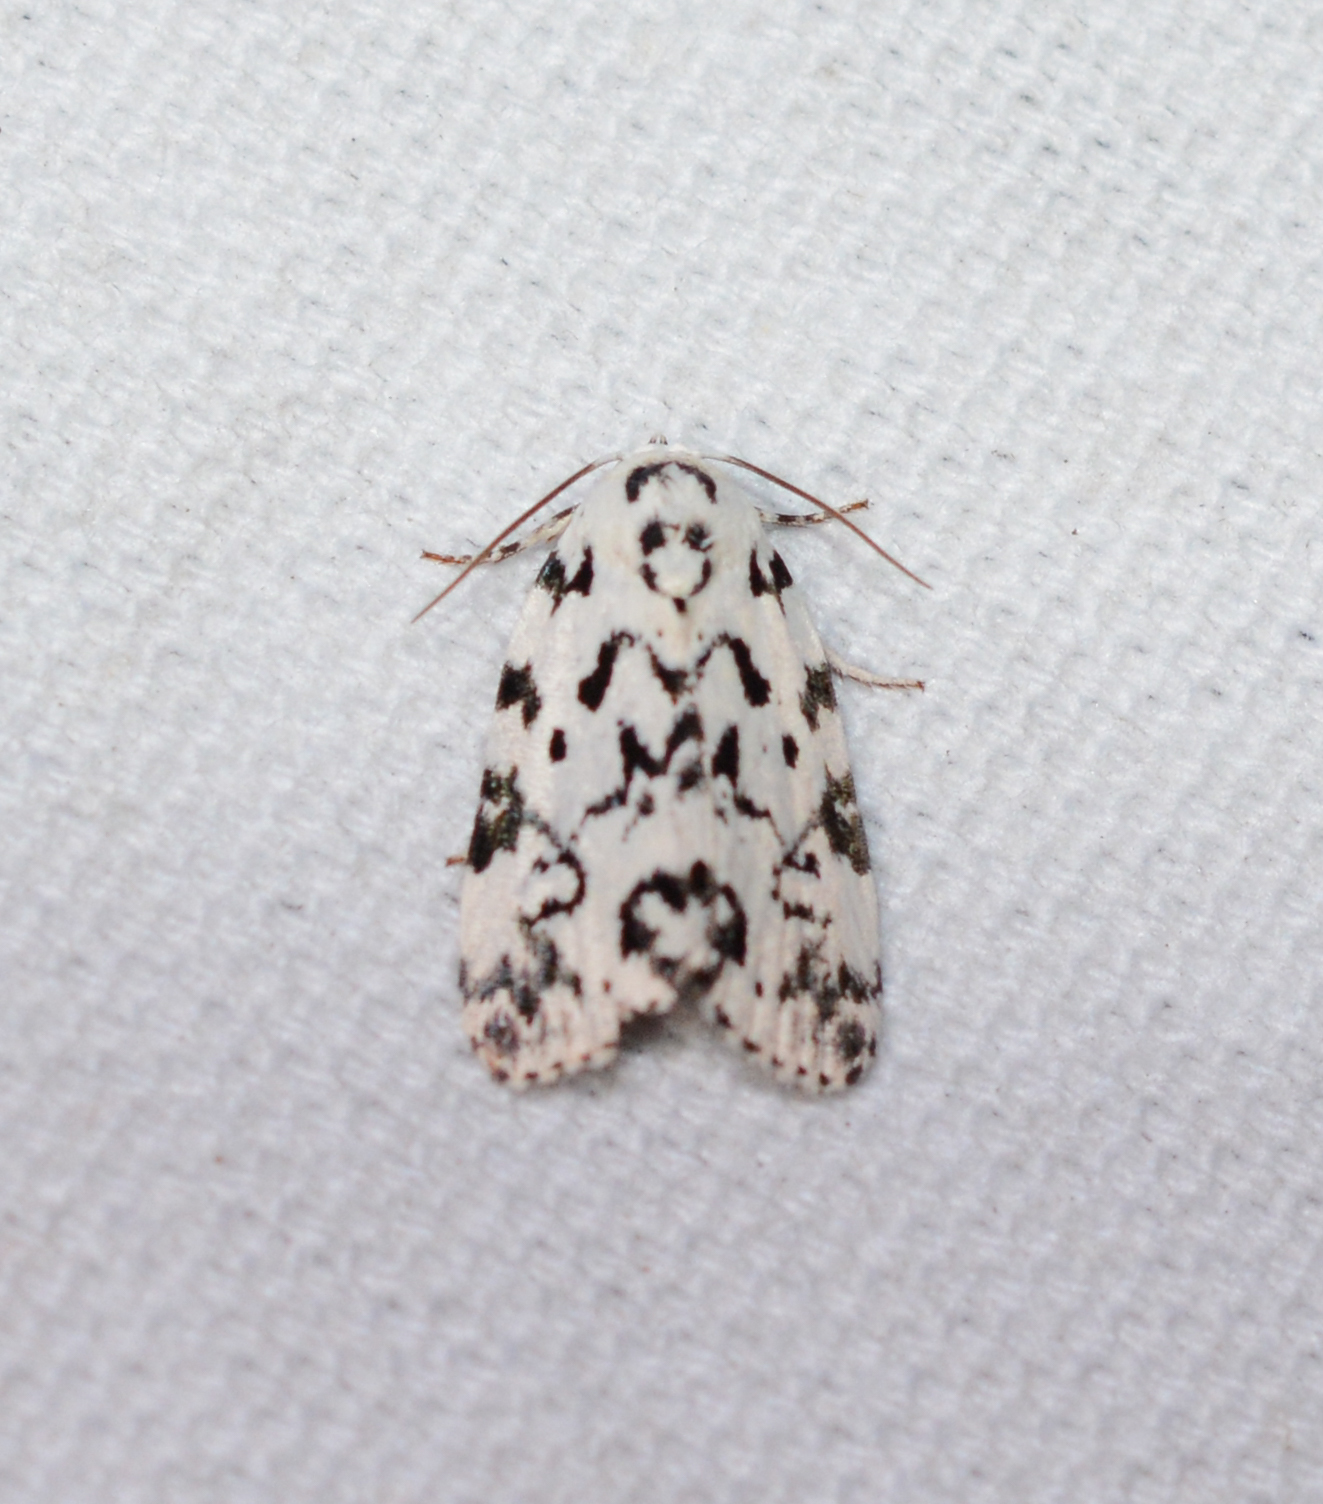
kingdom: Animalia
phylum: Arthropoda
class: Insecta
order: Lepidoptera
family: Noctuidae
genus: Polygrammate
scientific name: Polygrammate hebraeicum
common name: Hebrew moth
